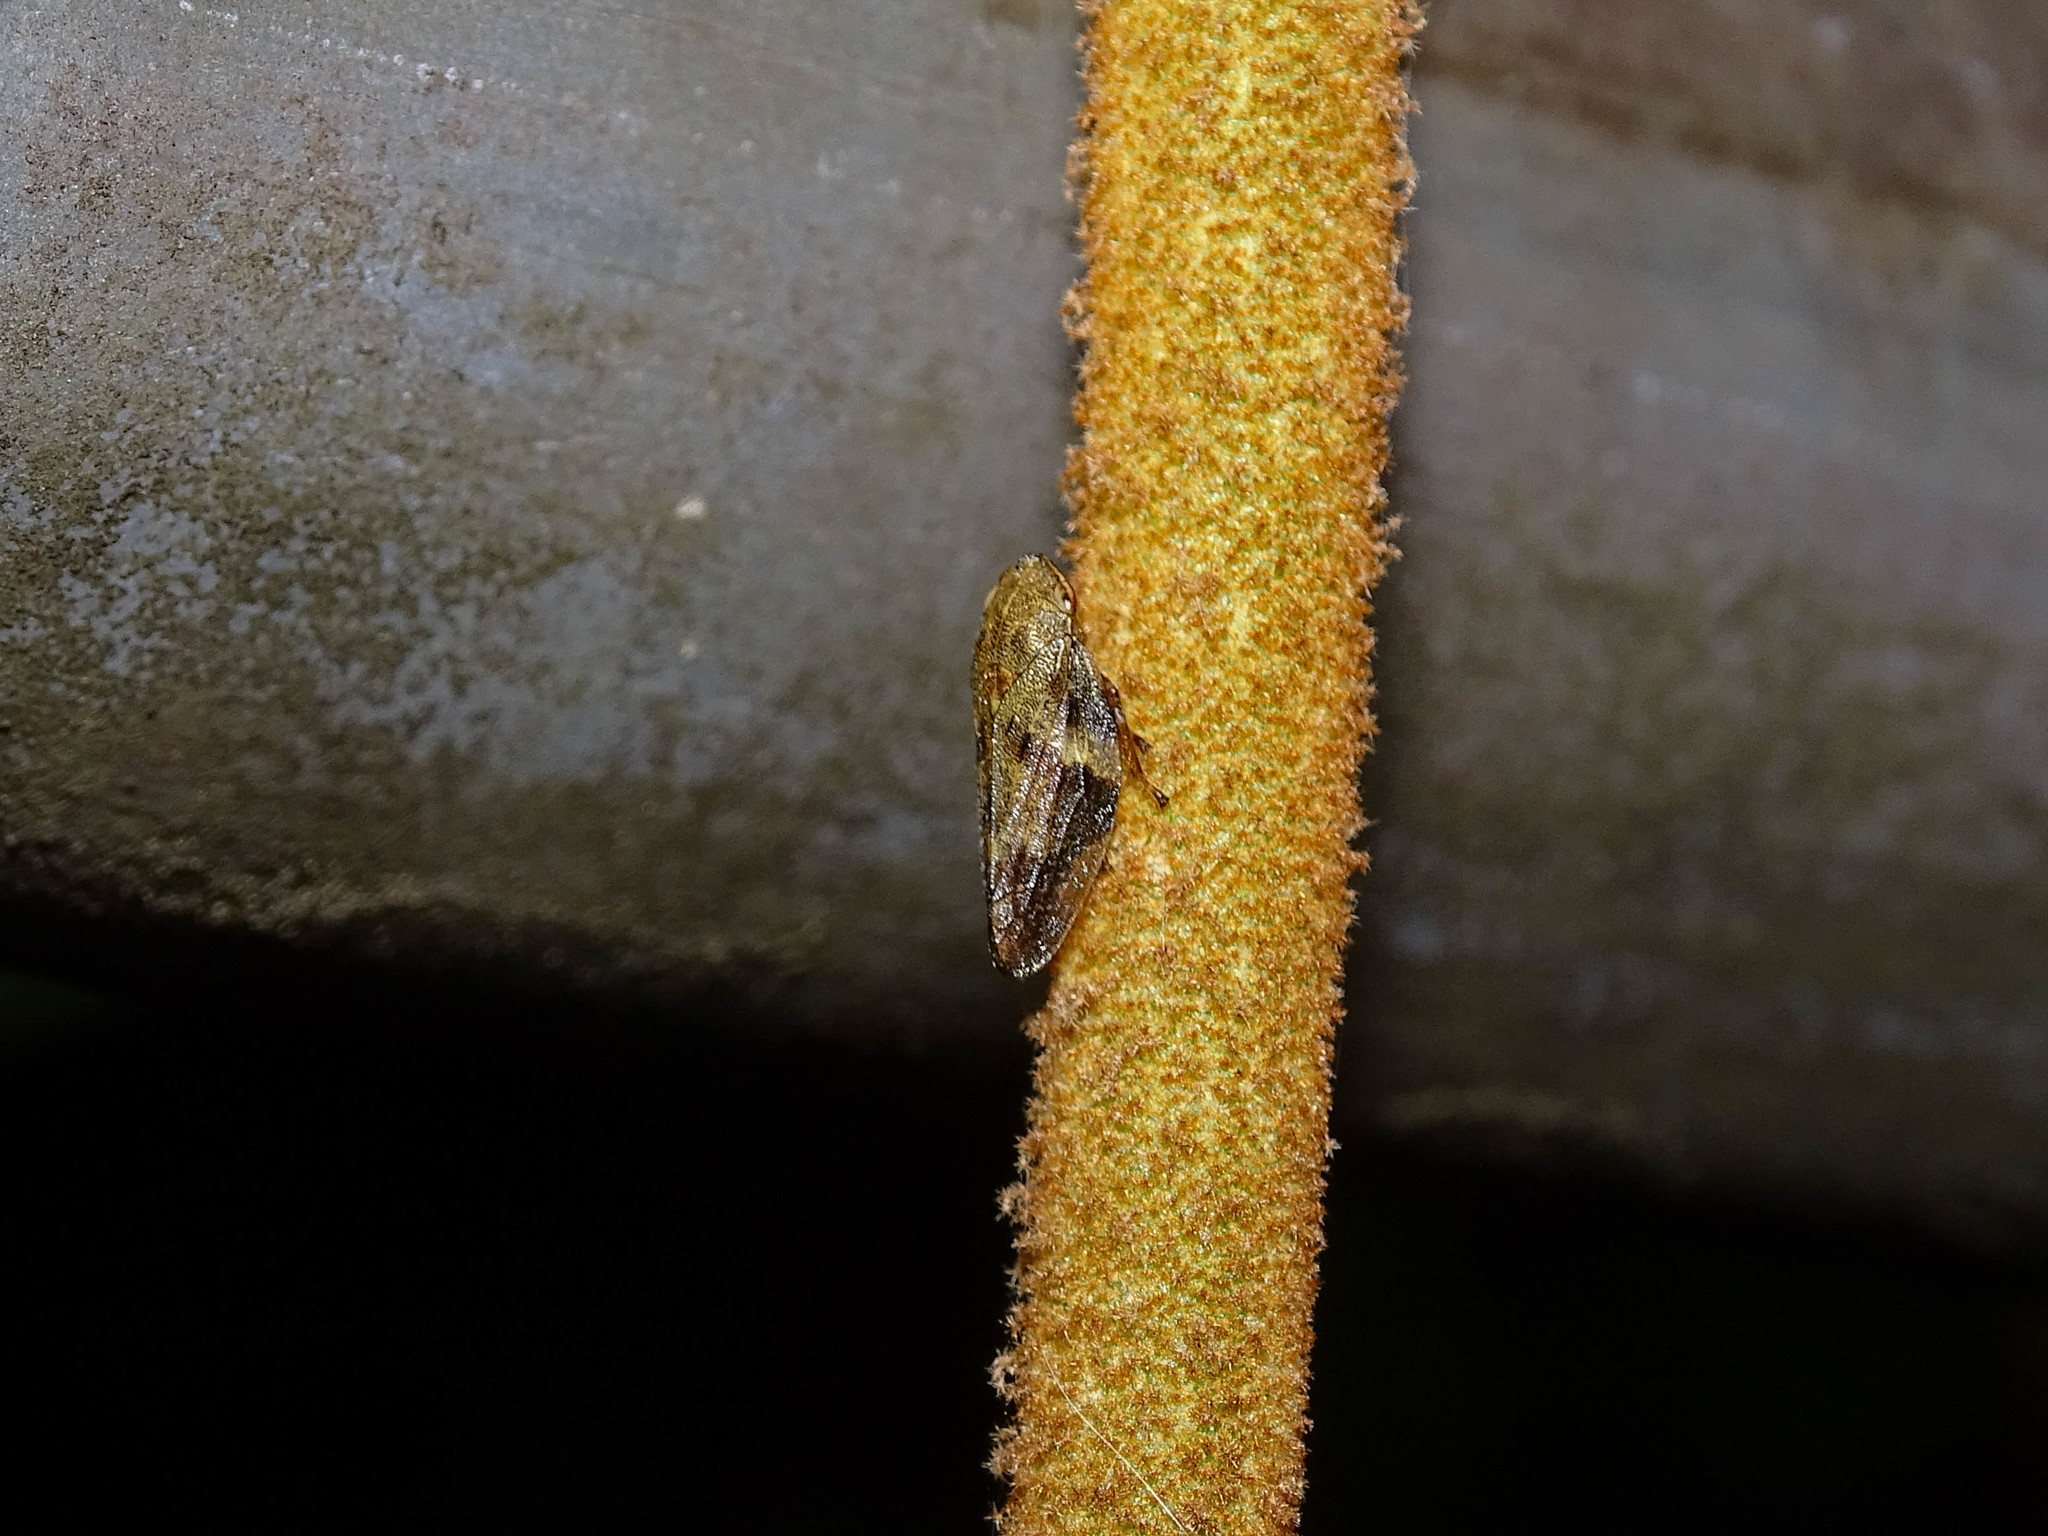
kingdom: Animalia
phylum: Arthropoda
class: Insecta
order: Hemiptera
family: Aphrophoridae
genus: Aphrophora
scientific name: Aphrophora alni
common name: European alder spittlebug
